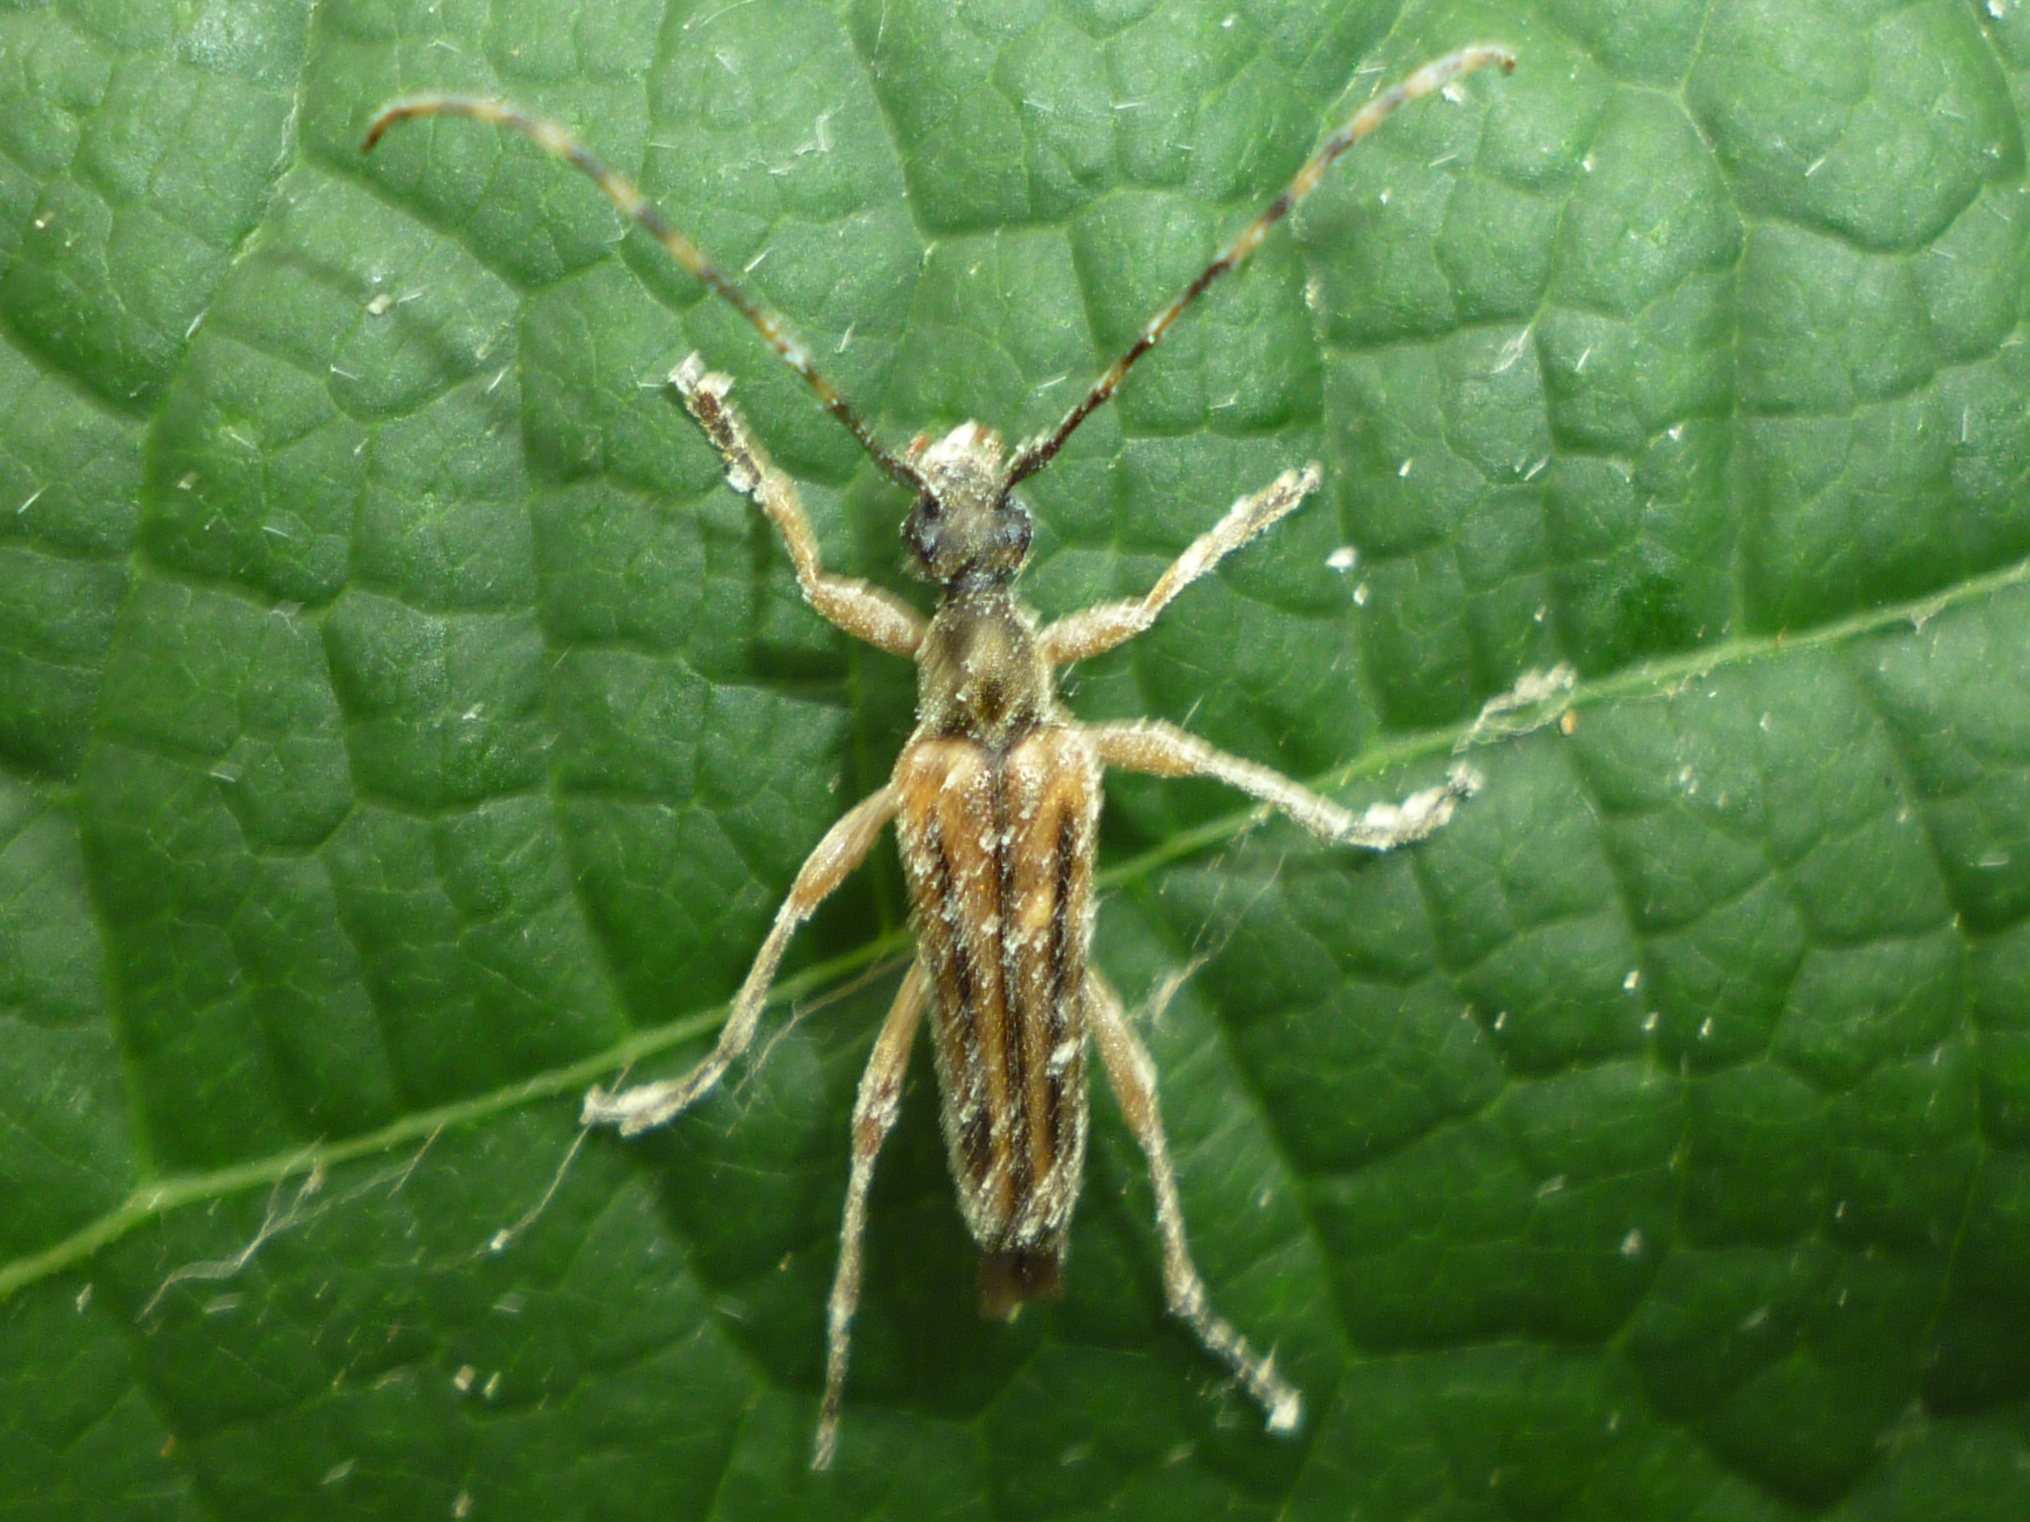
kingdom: Animalia
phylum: Arthropoda
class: Insecta
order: Coleoptera
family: Cerambycidae
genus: Analeptura
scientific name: Analeptura lineola
